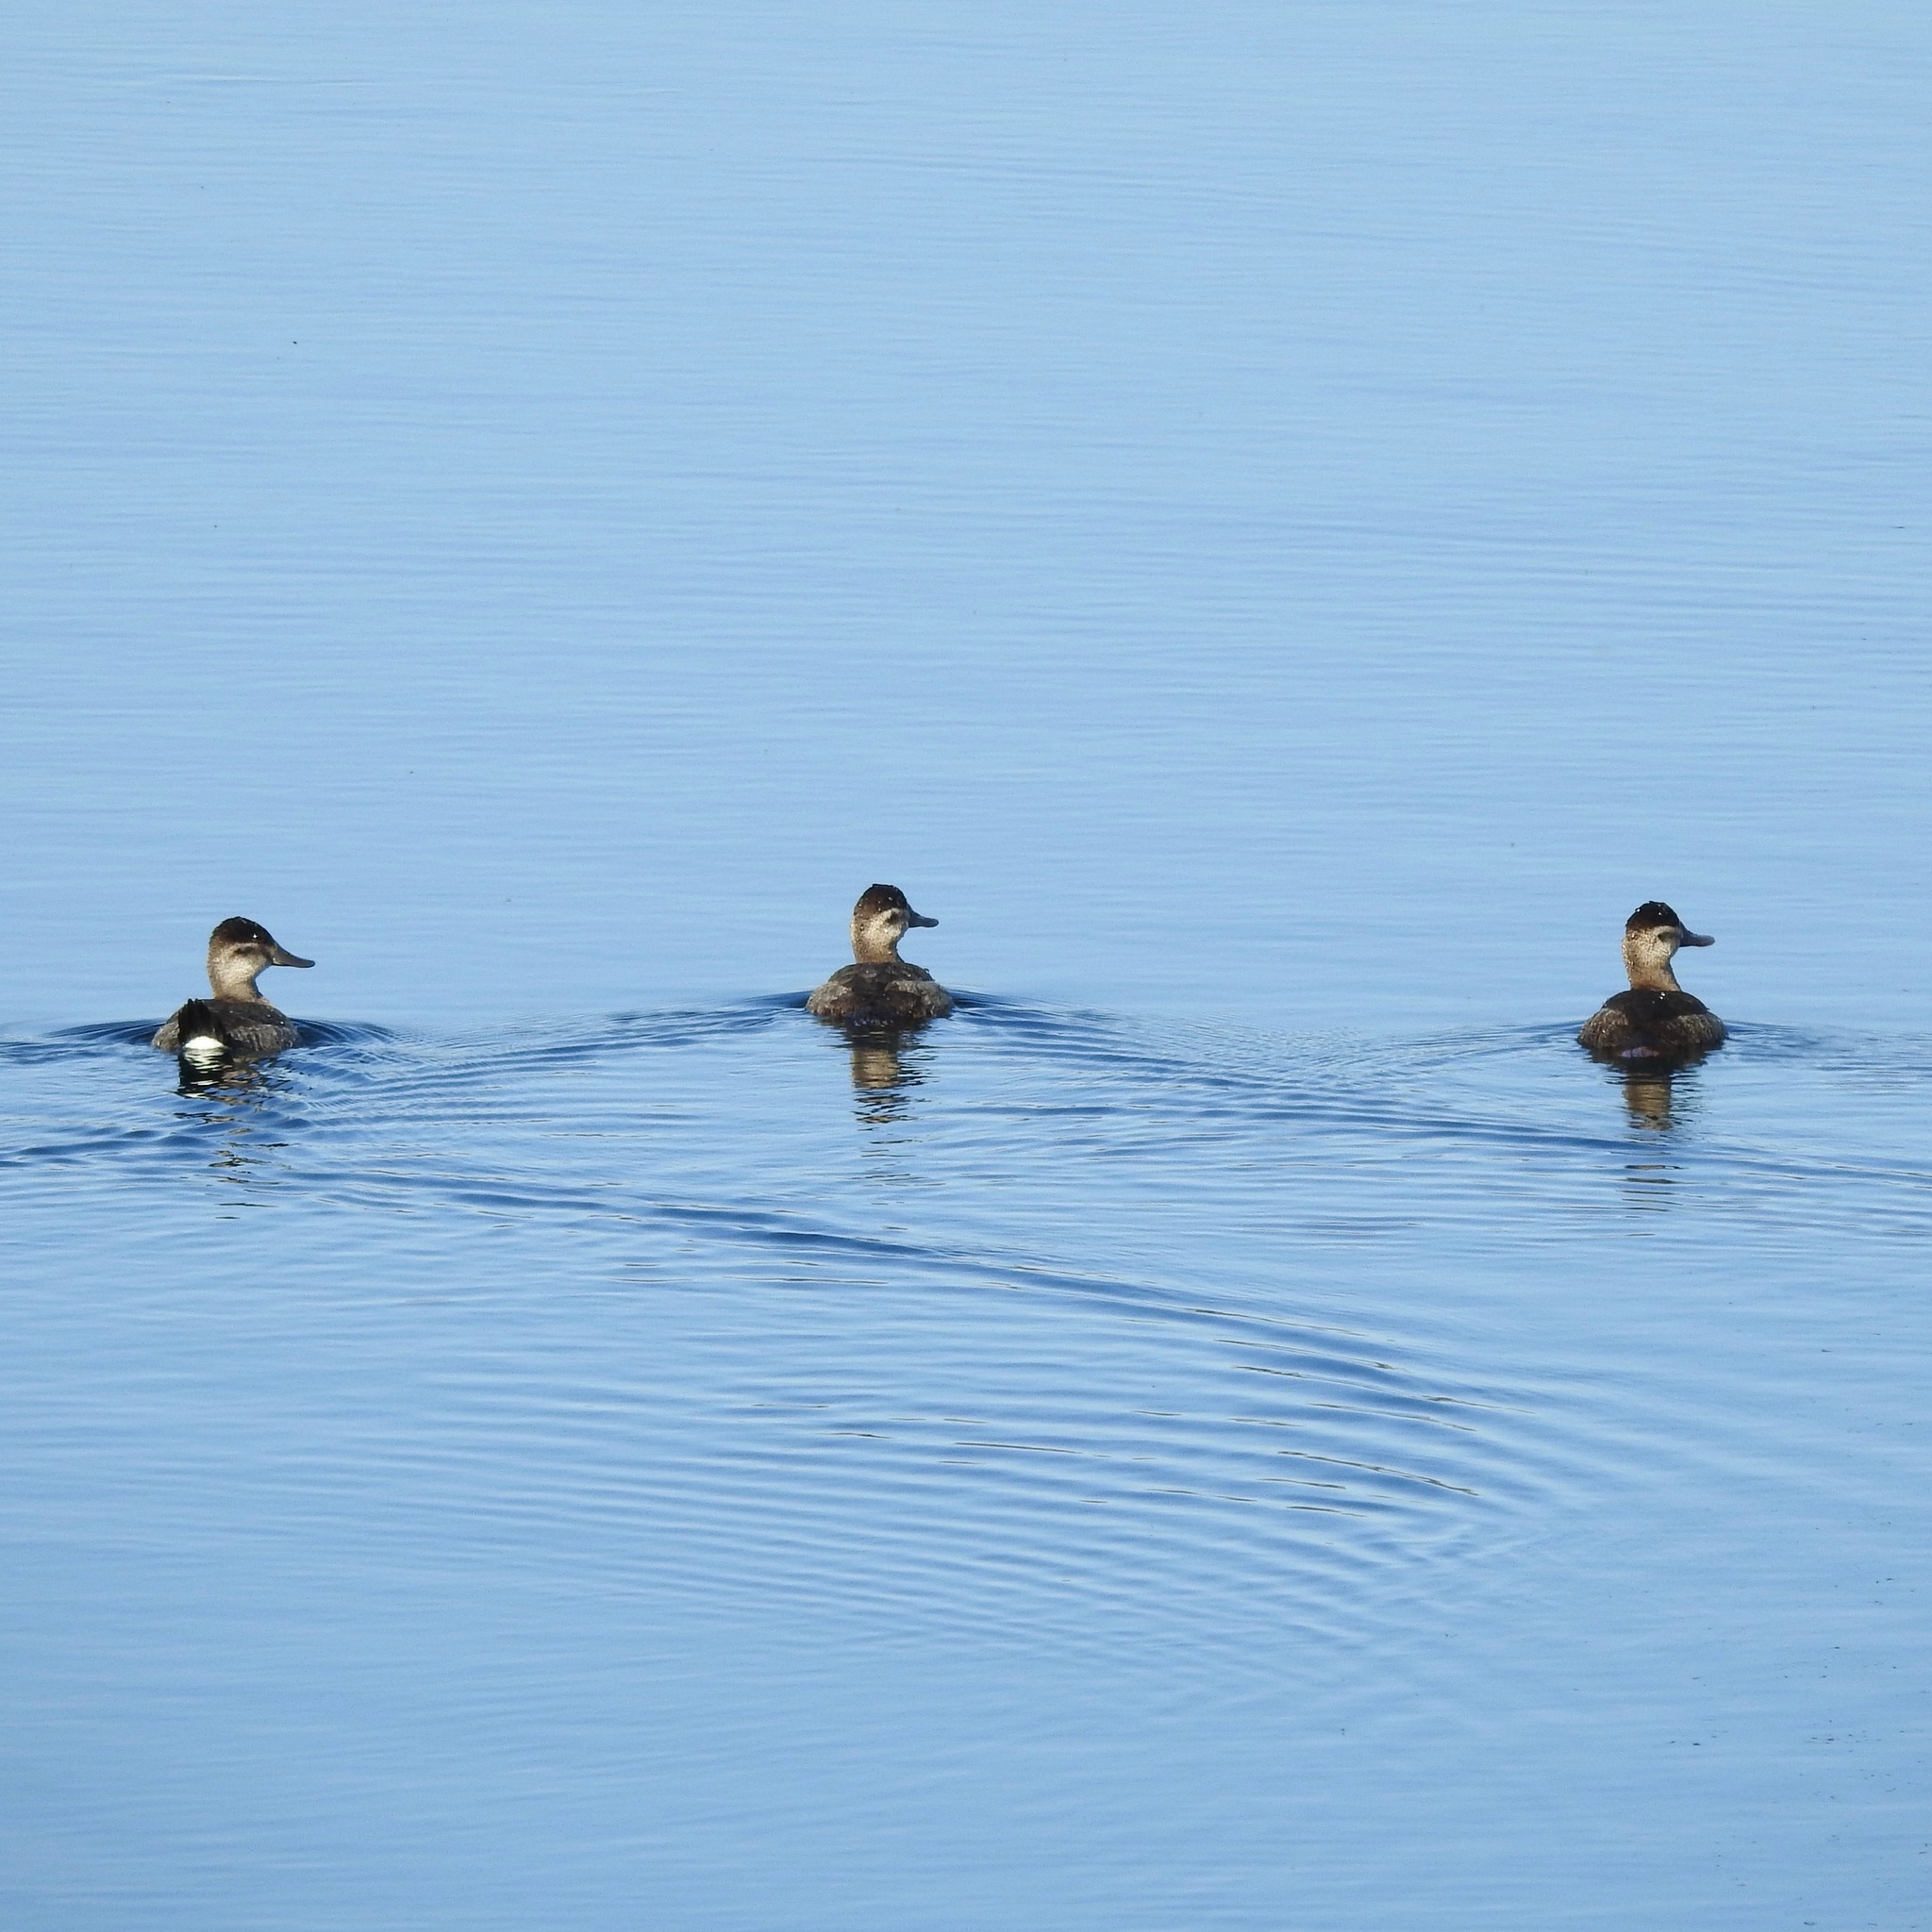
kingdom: Animalia
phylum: Chordata
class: Aves
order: Anseriformes
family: Anatidae
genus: Oxyura
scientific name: Oxyura jamaicensis
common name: Ruddy duck
